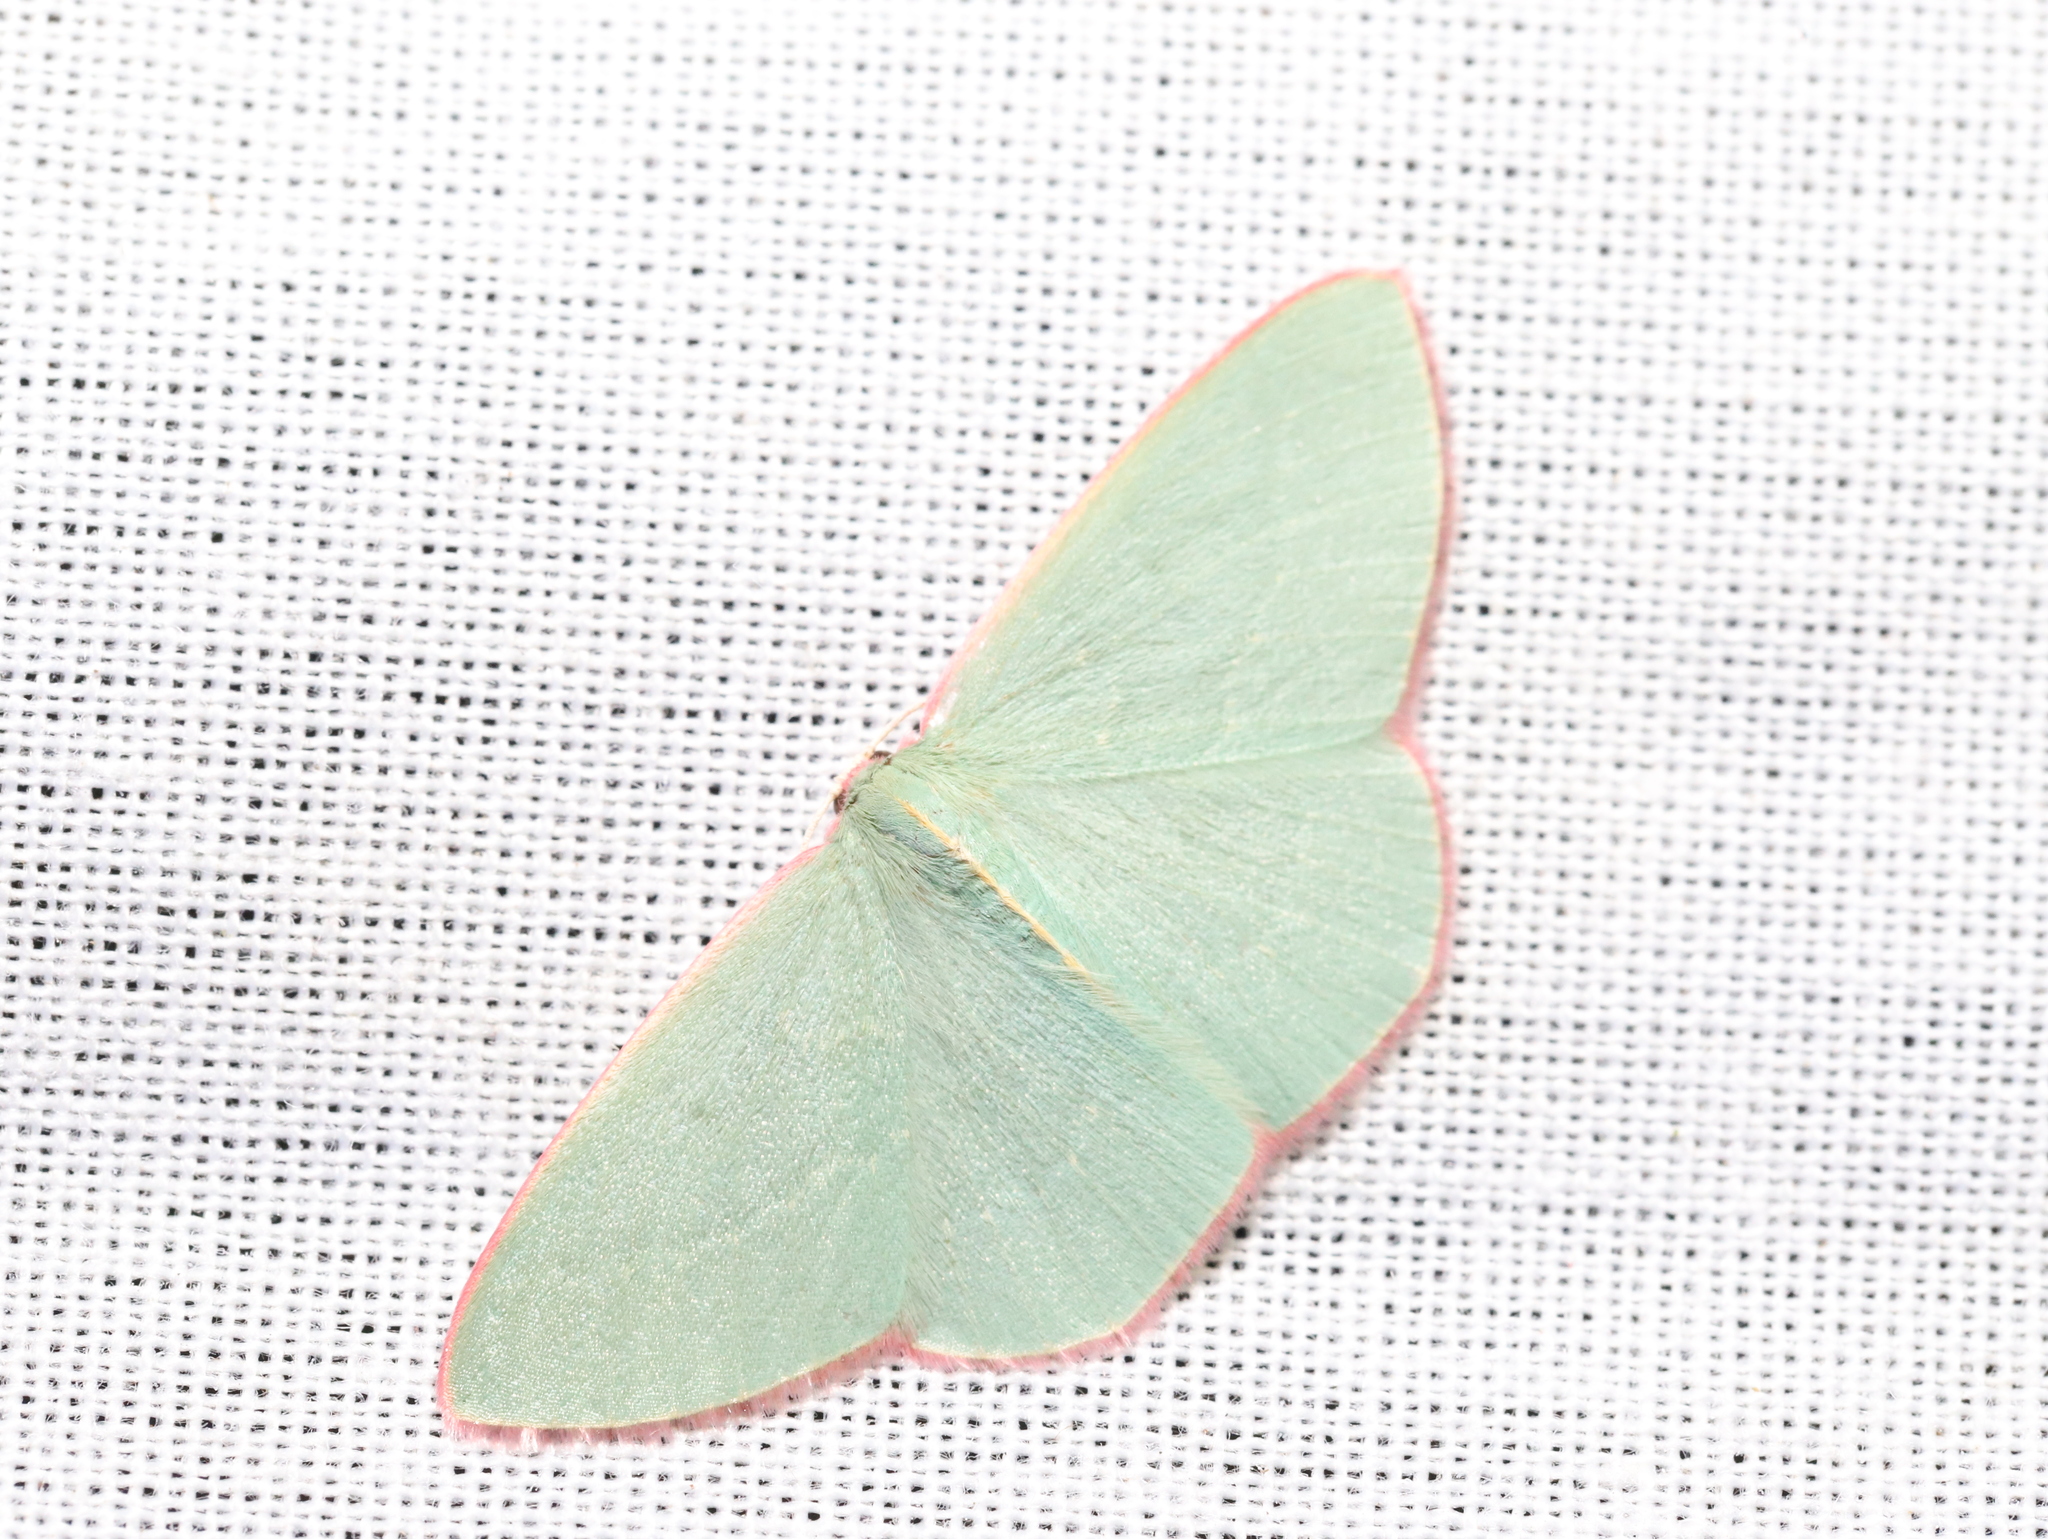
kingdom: Animalia
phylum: Arthropoda
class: Insecta
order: Lepidoptera
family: Geometridae
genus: Chlorocoma
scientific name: Chlorocoma vertumnaria
